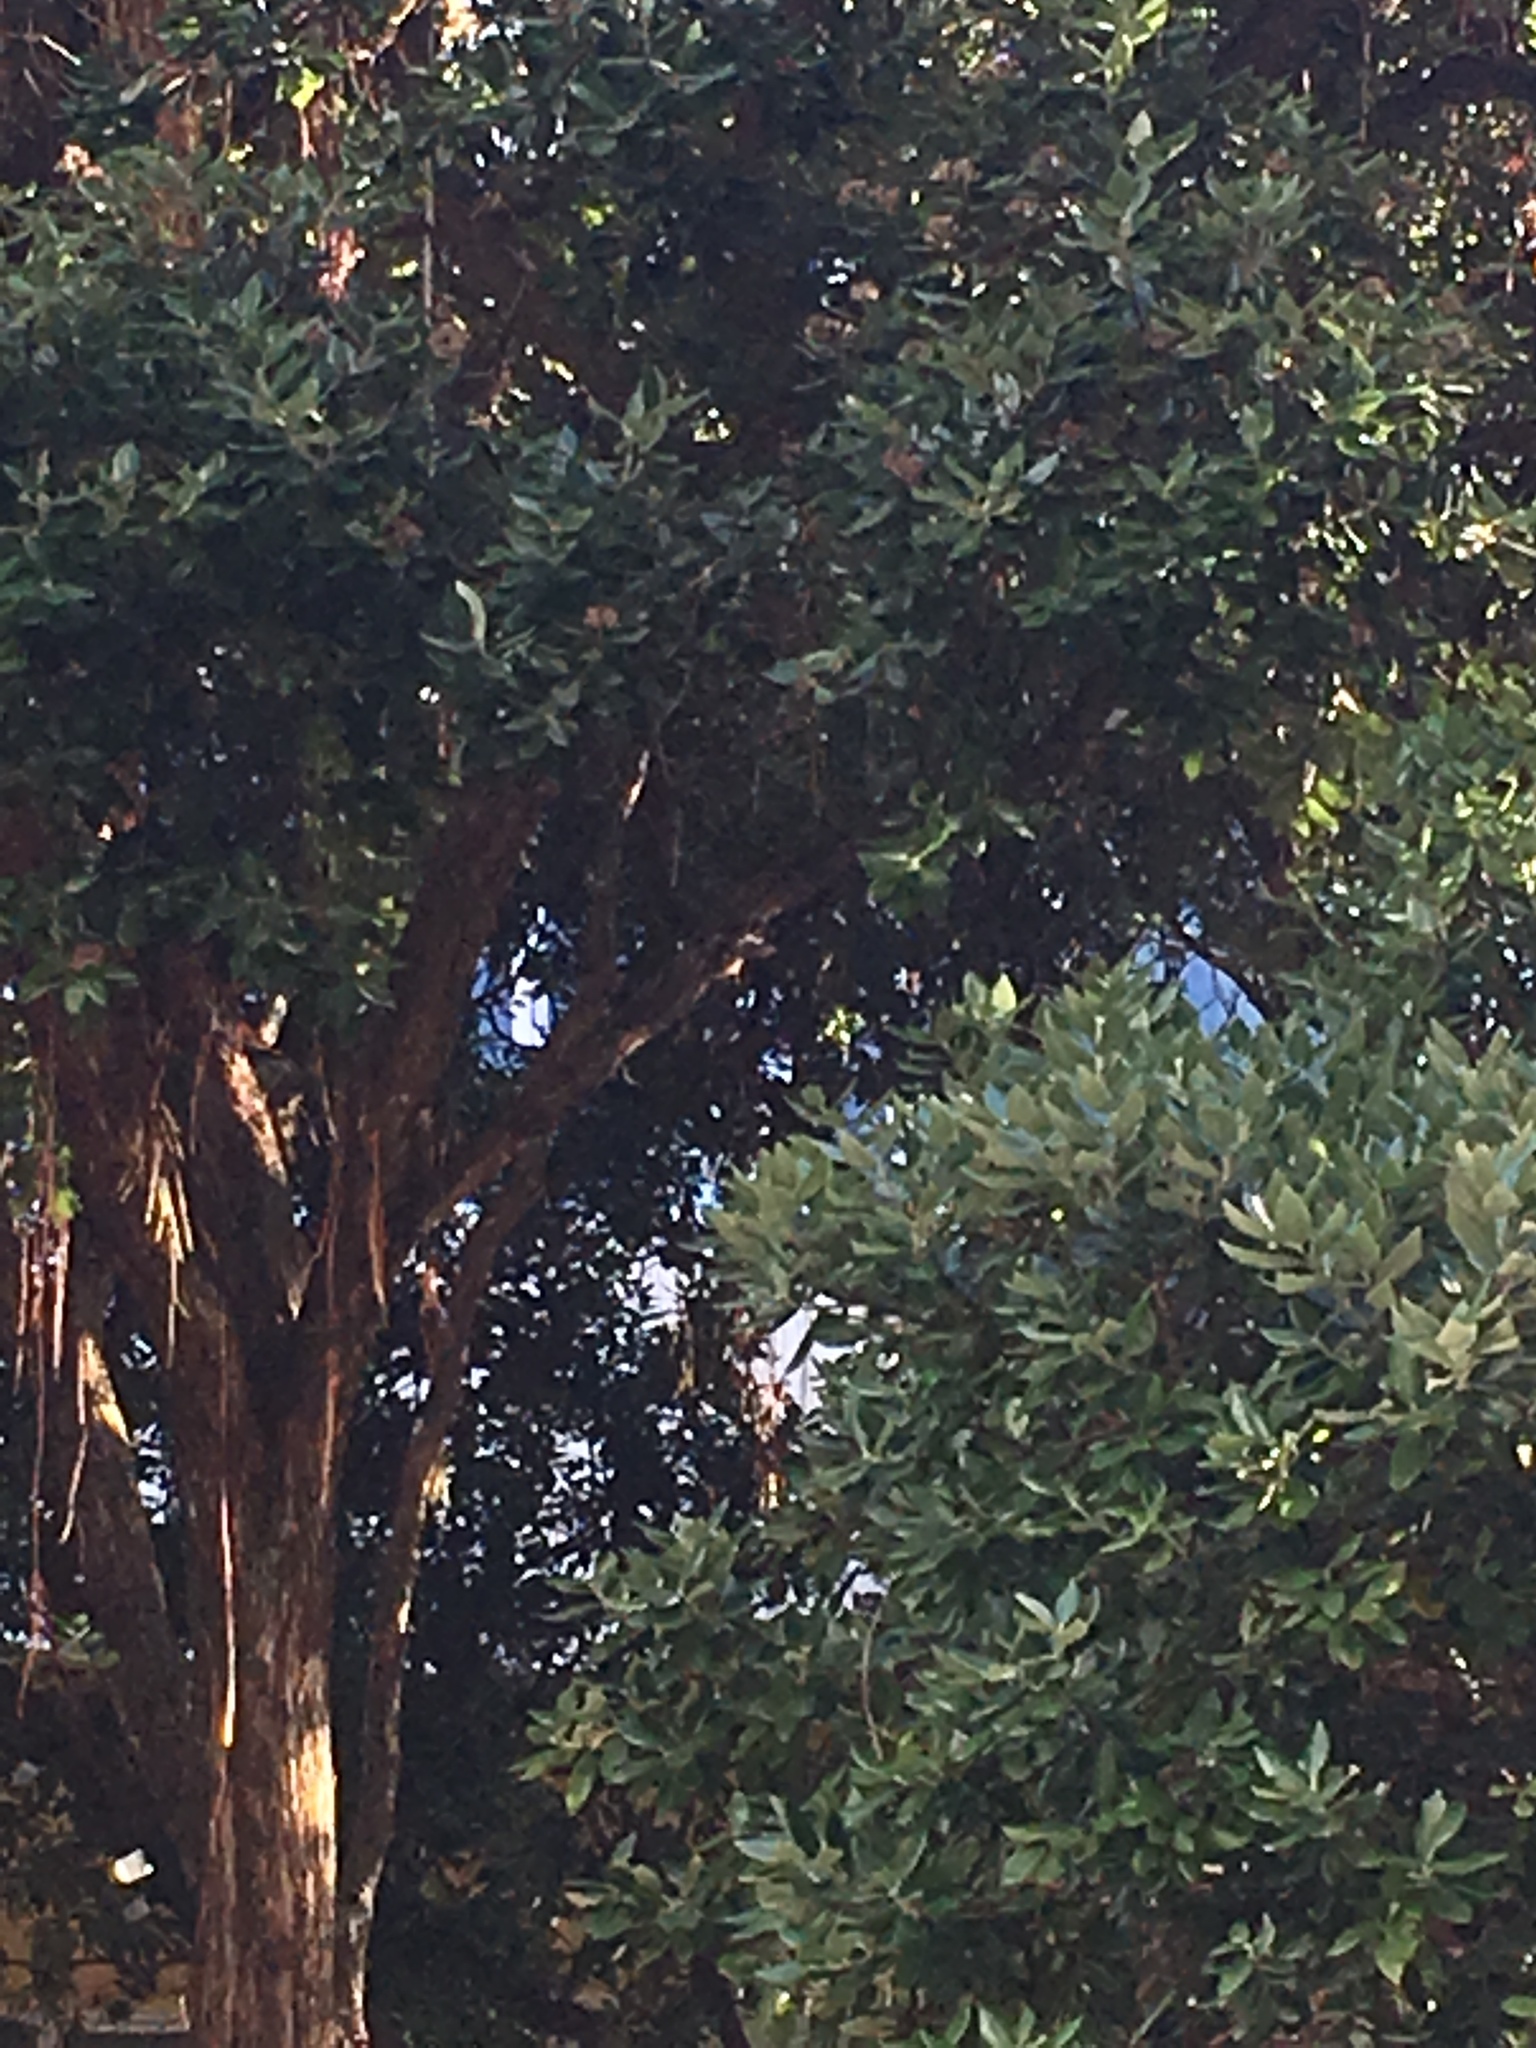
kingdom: Animalia
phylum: Chordata
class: Aves
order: Passeriformes
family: Rhipiduridae
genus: Rhipidura
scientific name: Rhipidura fuliginosa
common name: New zealand fantail
